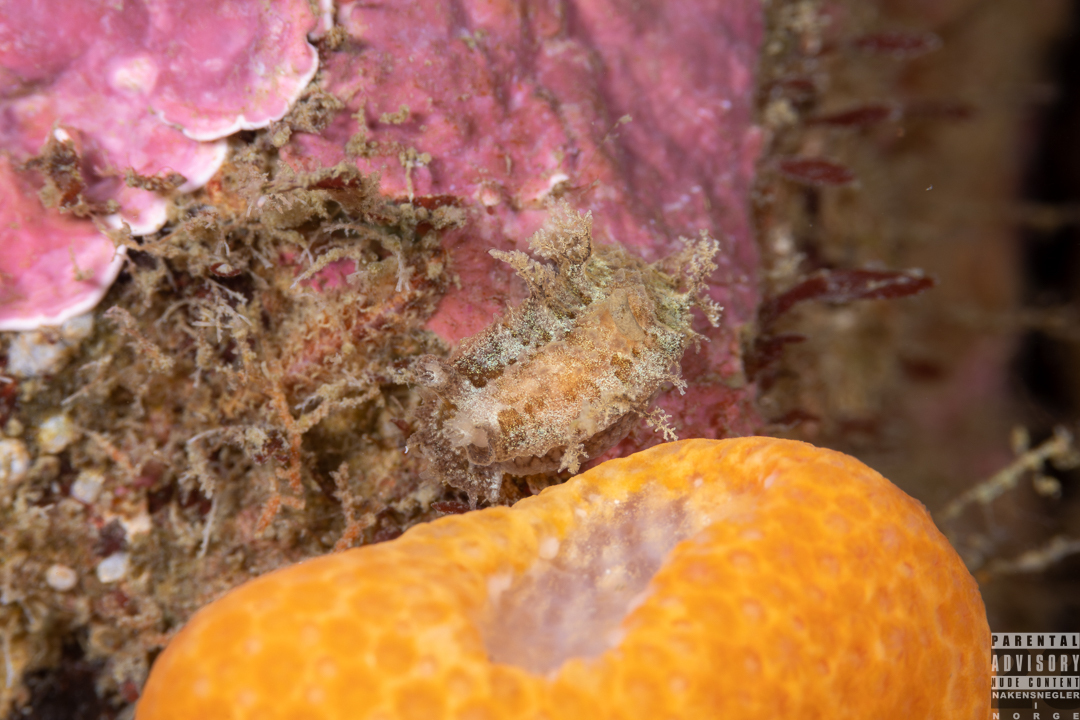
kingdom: Animalia
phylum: Mollusca
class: Gastropoda
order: Nudibranchia
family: Tritoniidae
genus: Duvaucelia
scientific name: Duvaucelia plebeia
